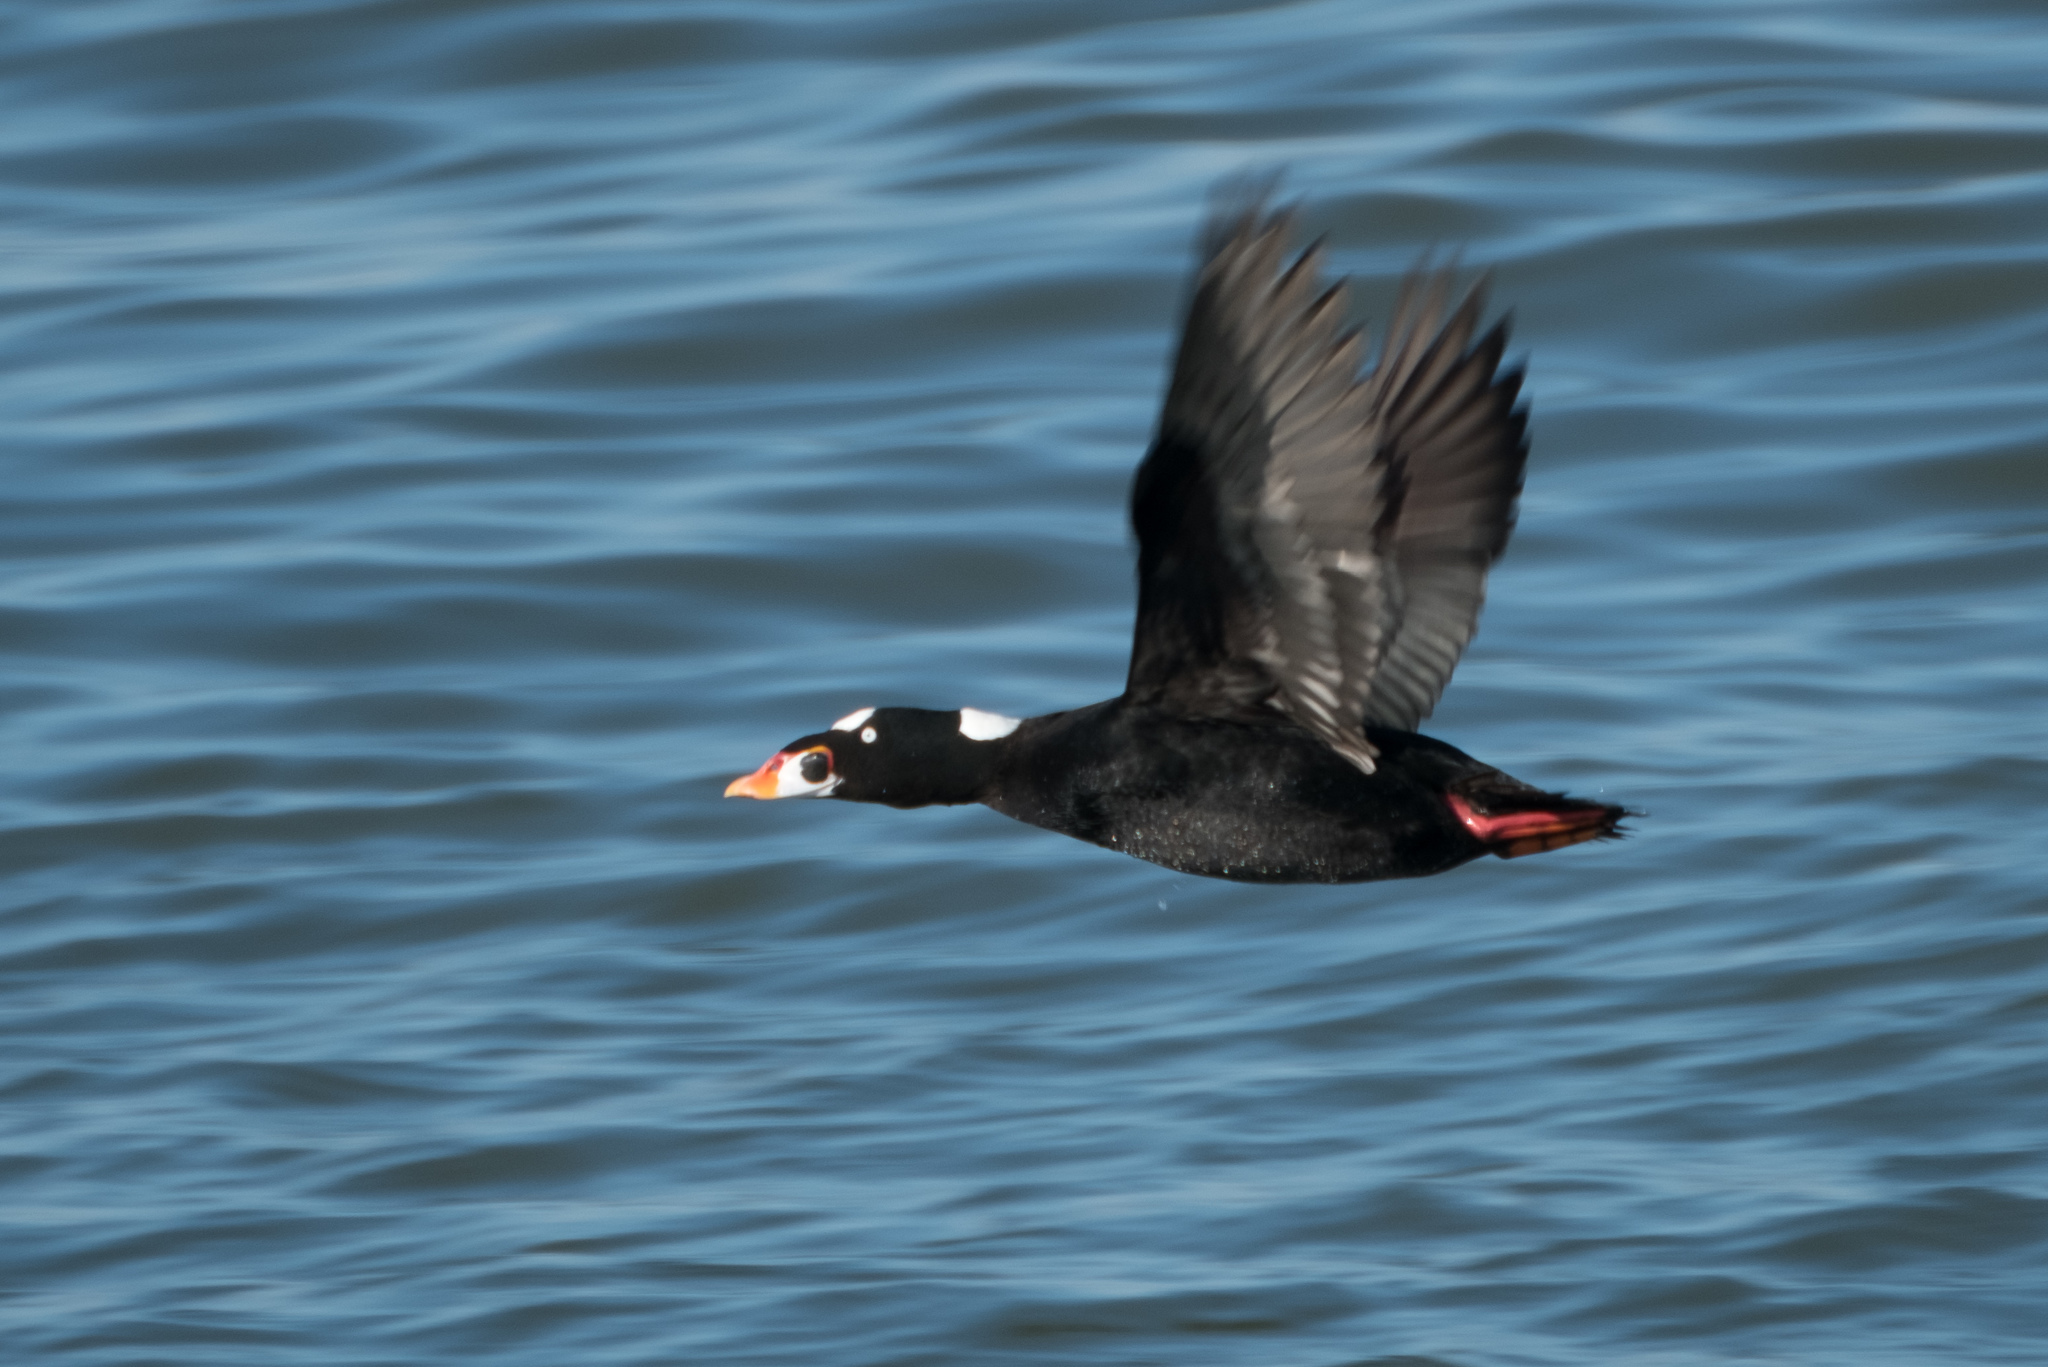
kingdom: Animalia
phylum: Chordata
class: Aves
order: Anseriformes
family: Anatidae
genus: Melanitta
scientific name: Melanitta perspicillata
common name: Surf scoter
